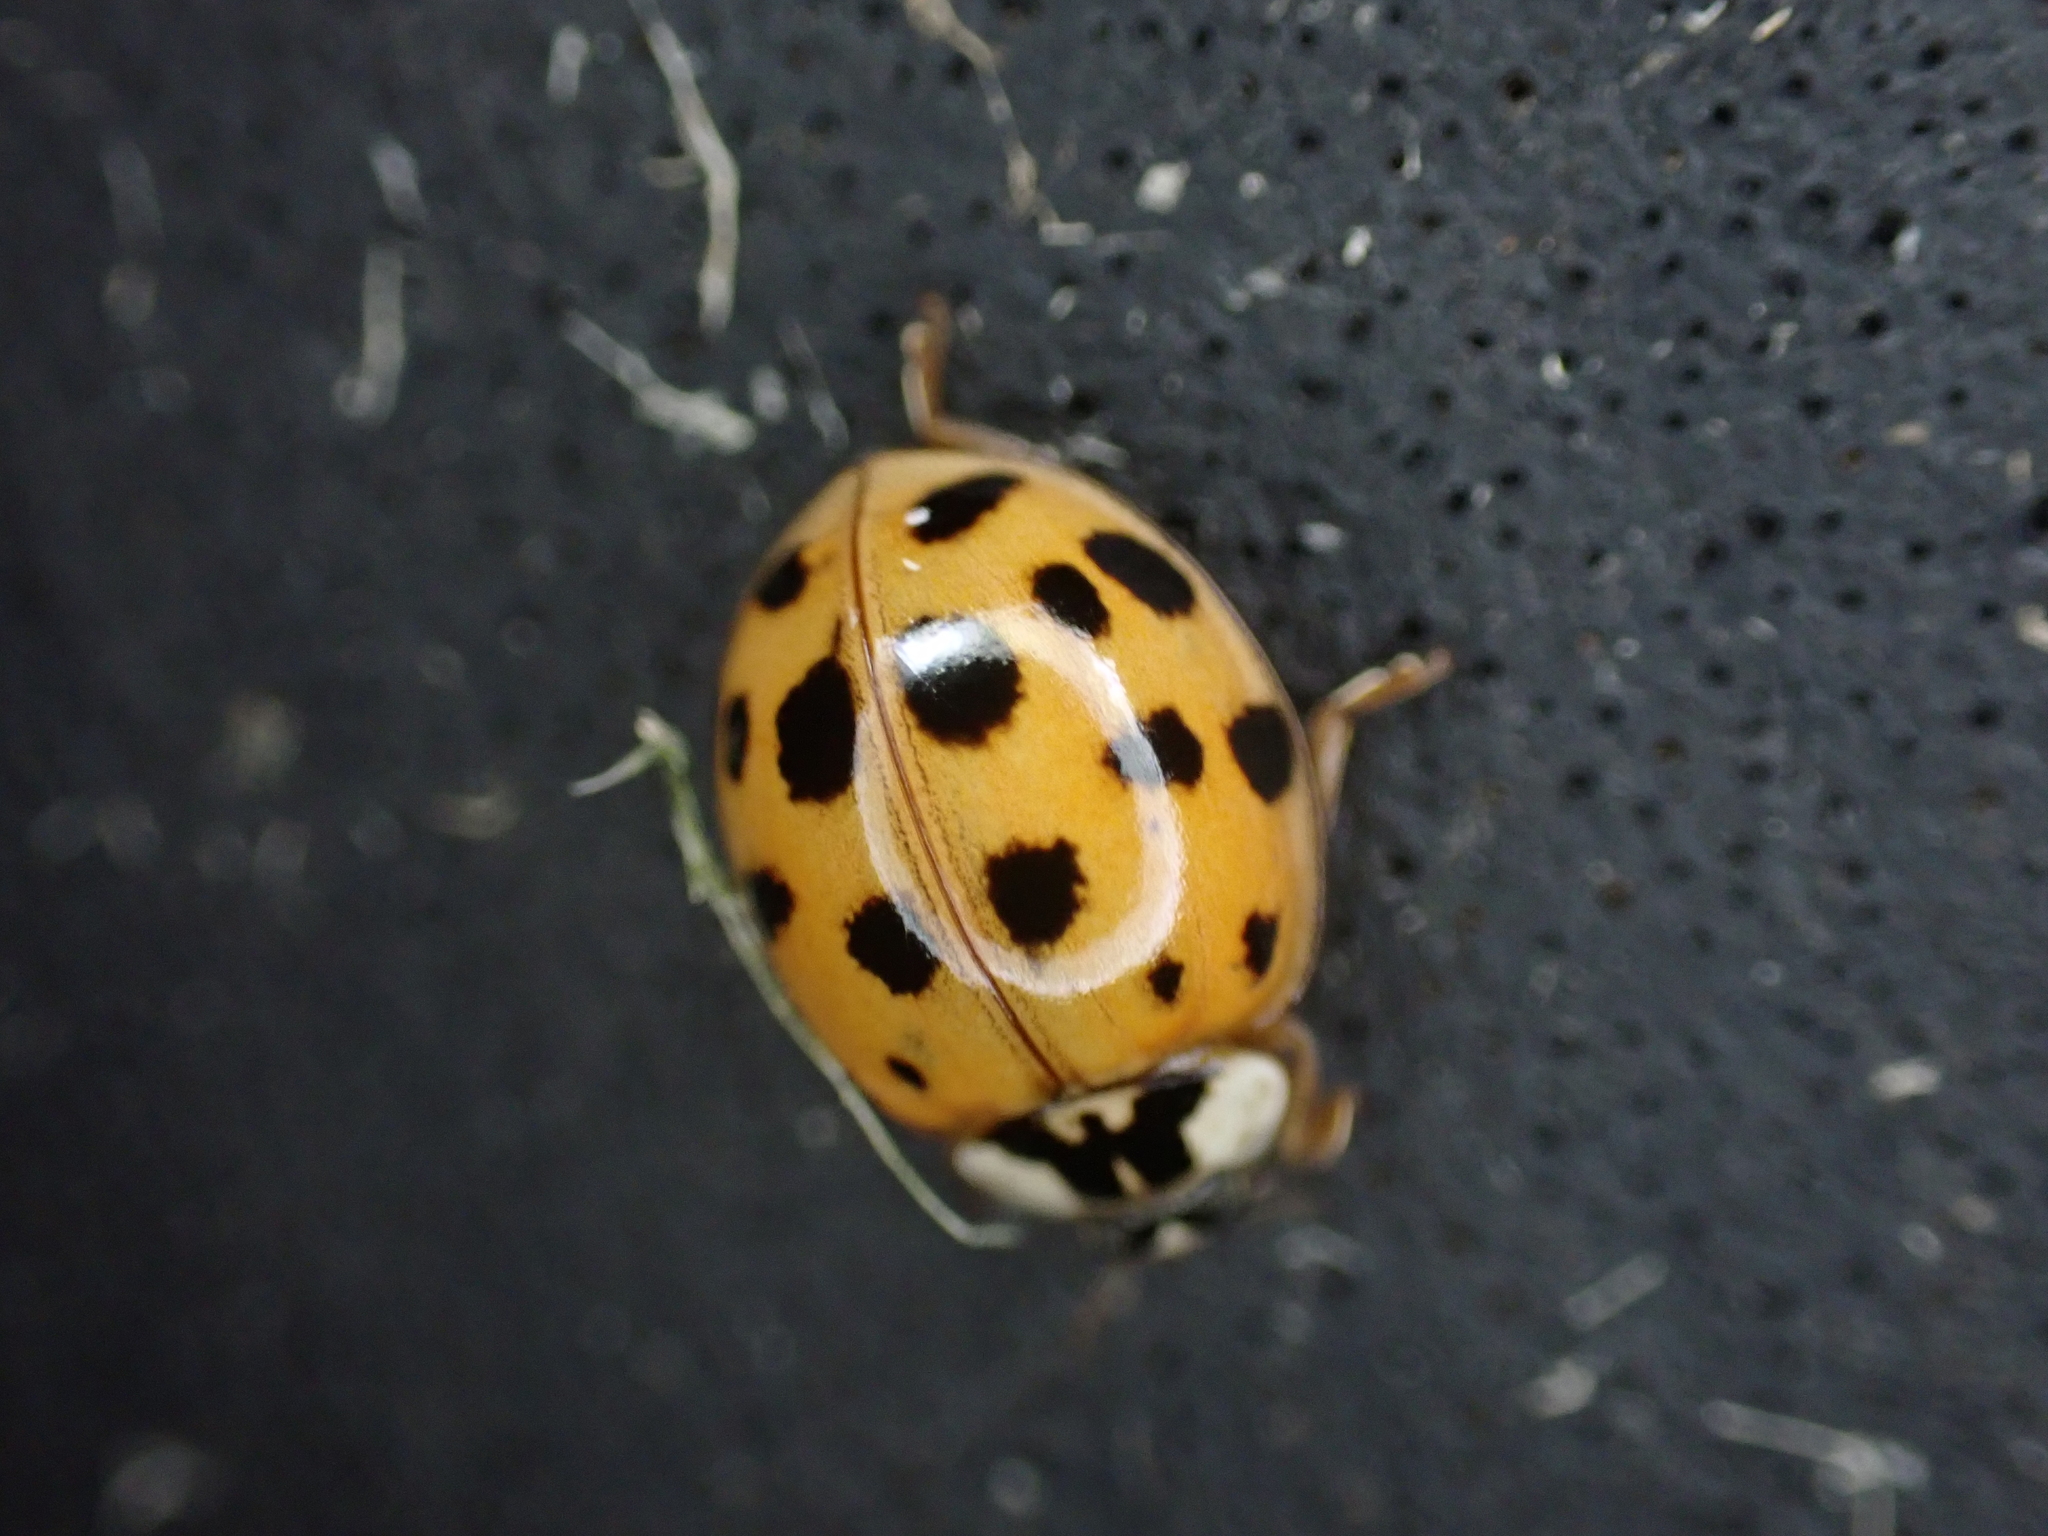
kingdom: Animalia
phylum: Arthropoda
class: Insecta
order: Coleoptera
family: Coccinellidae
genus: Harmonia
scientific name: Harmonia axyridis
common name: Harlequin ladybird
